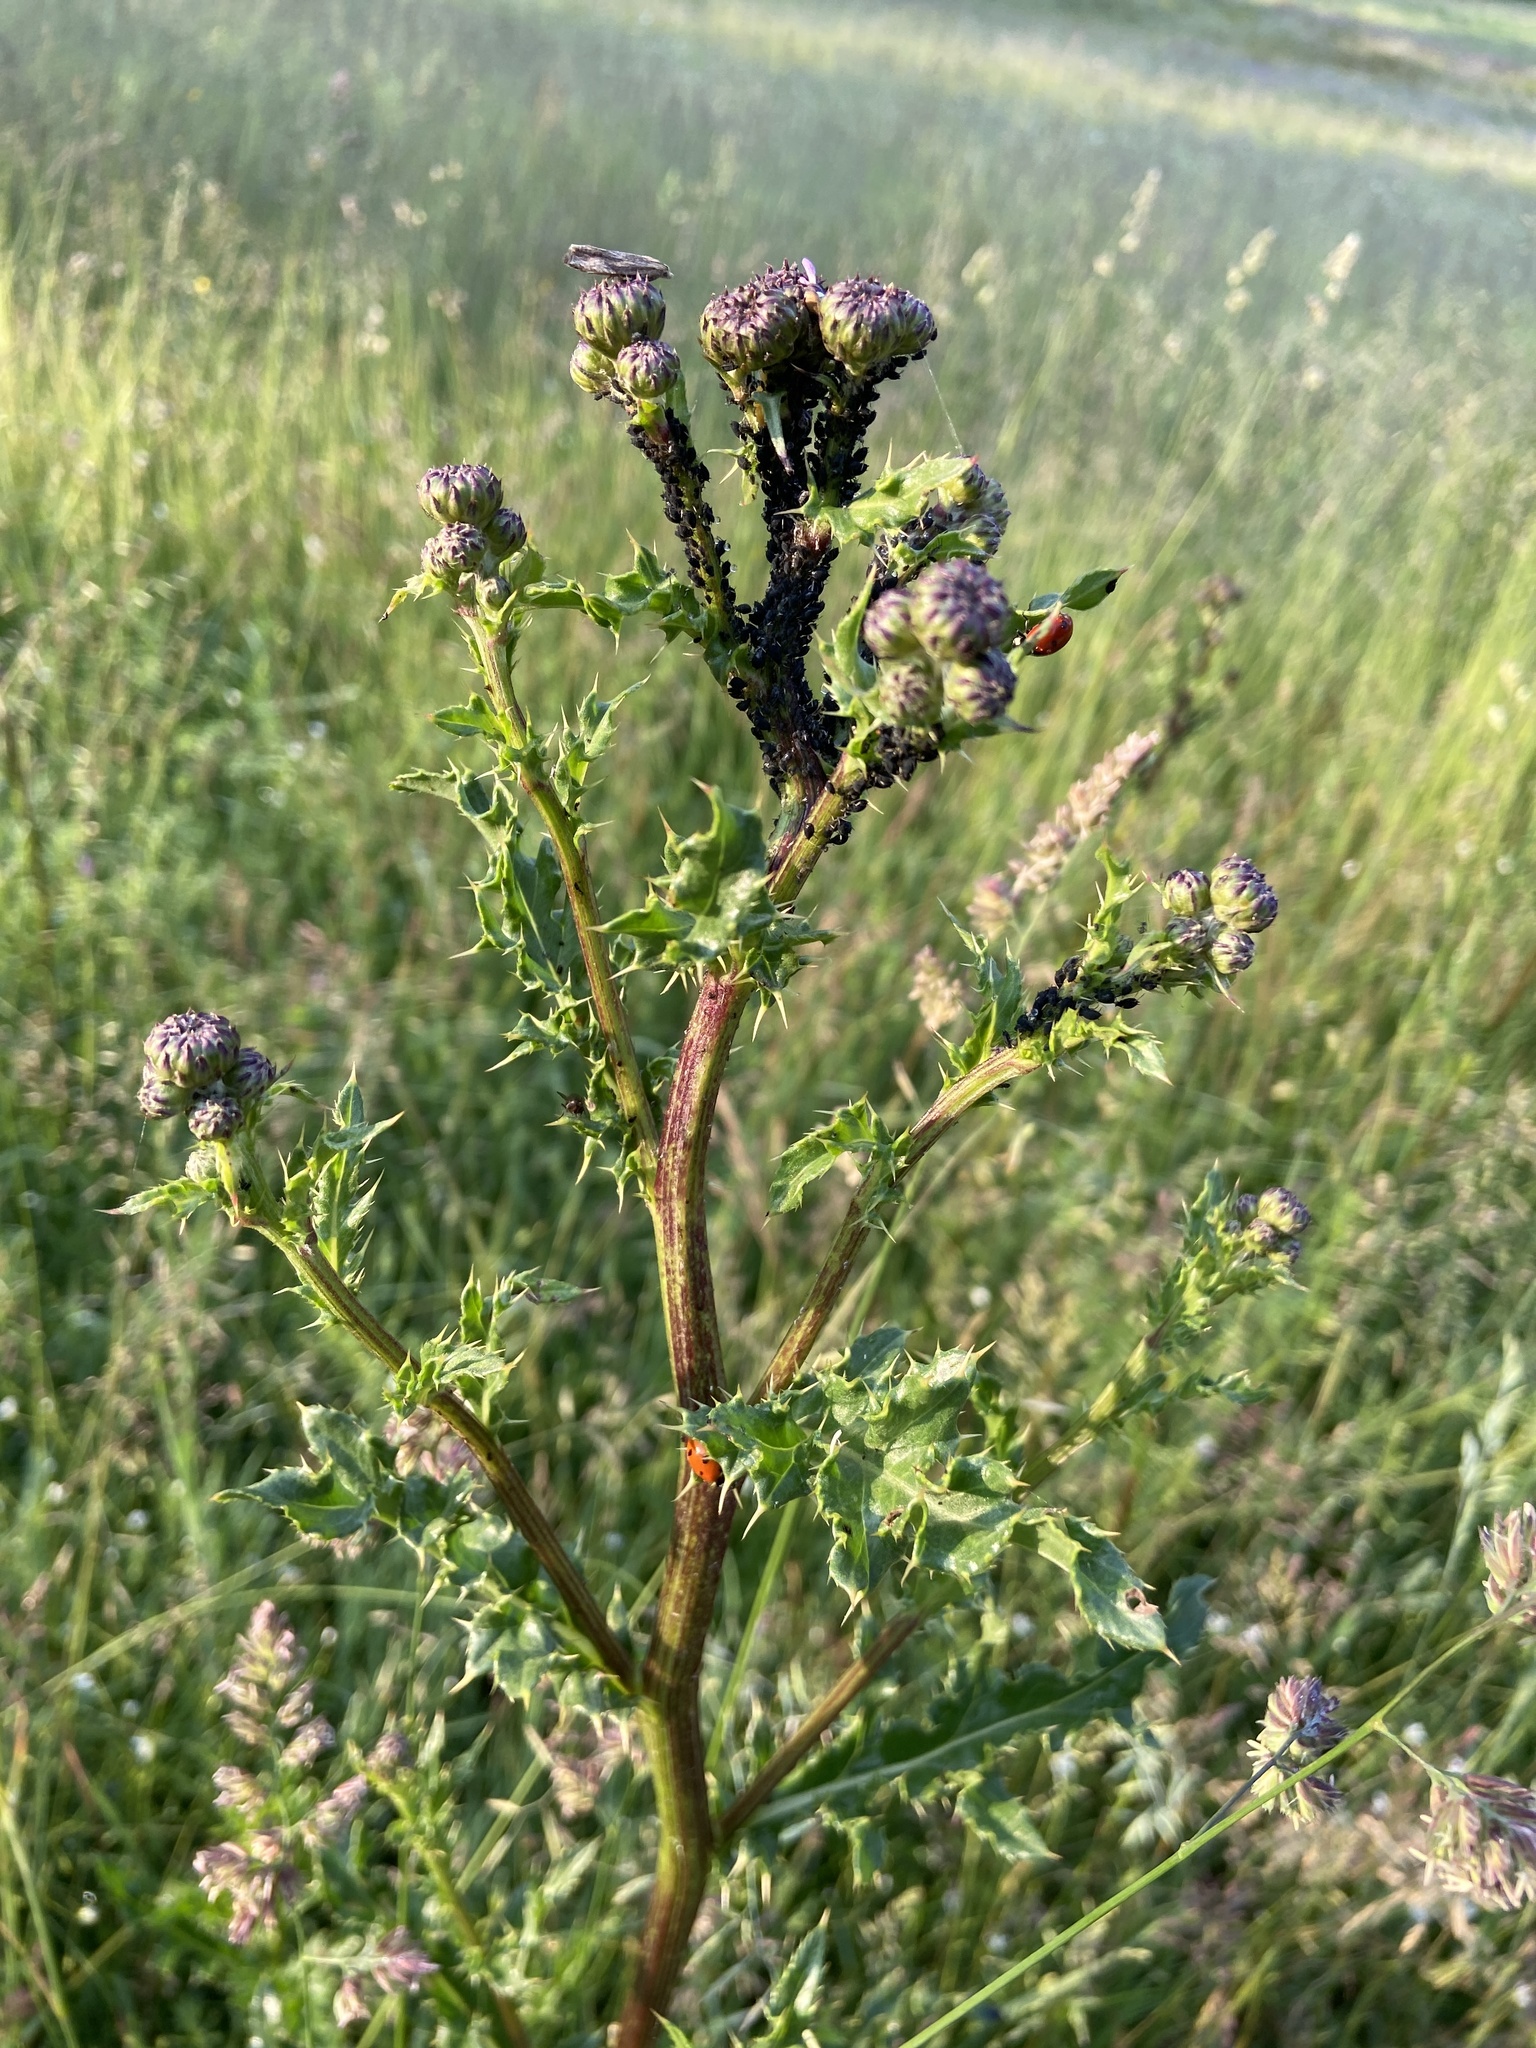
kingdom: Plantae
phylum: Tracheophyta
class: Magnoliopsida
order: Asterales
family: Asteraceae
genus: Cirsium
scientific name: Cirsium arvense
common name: Creeping thistle
